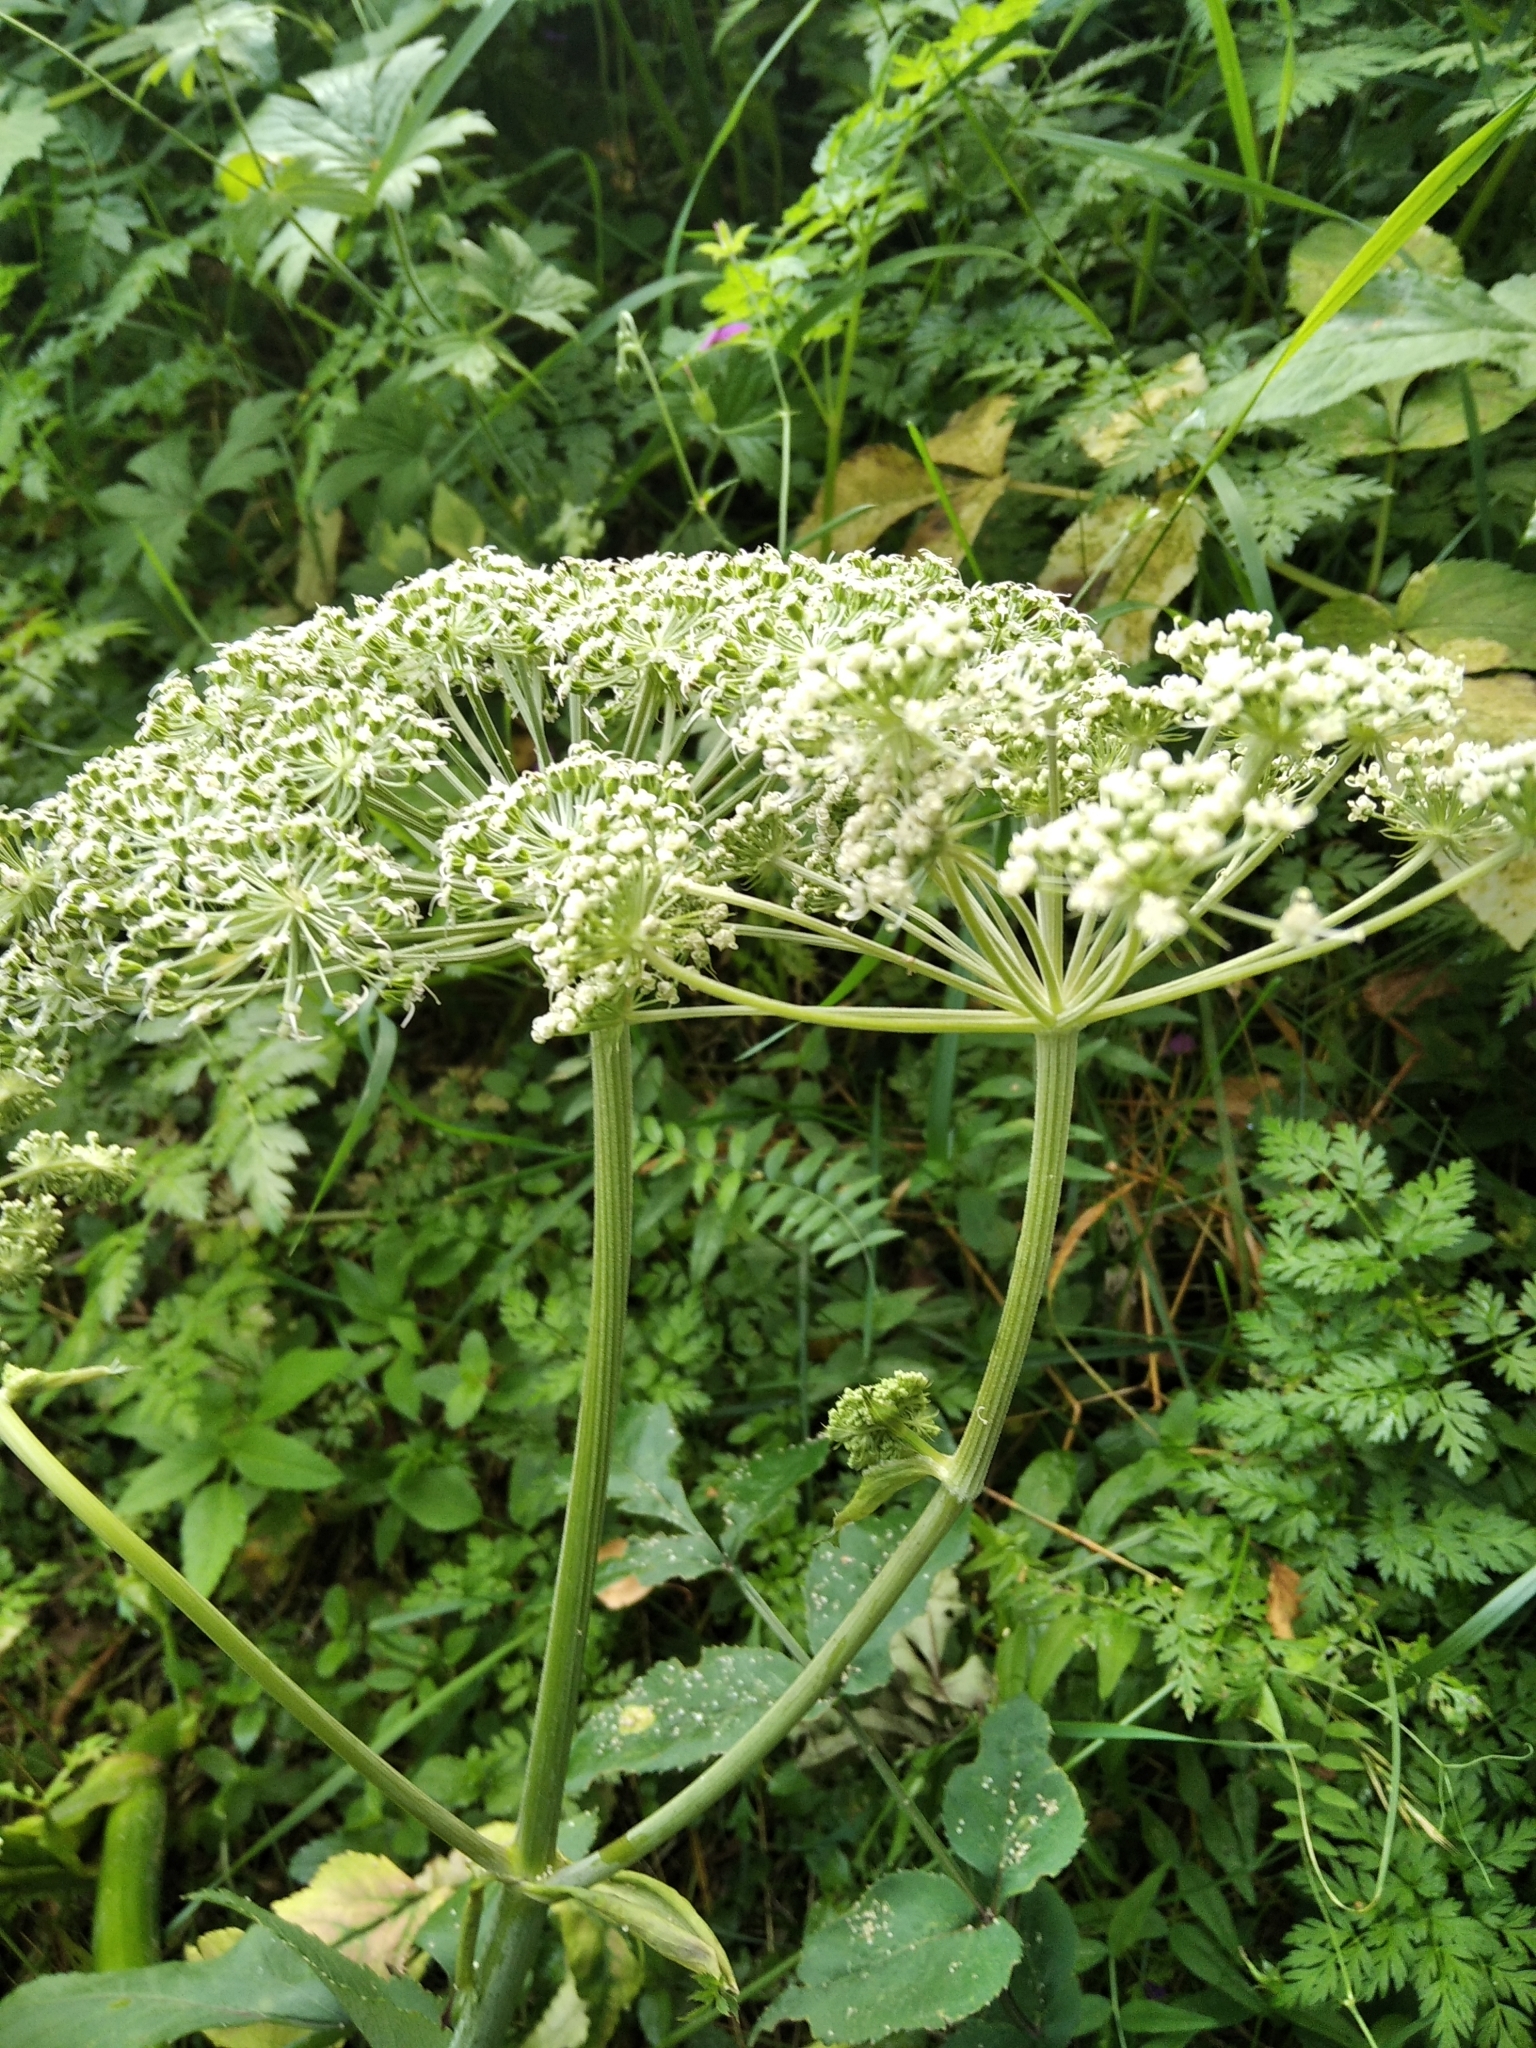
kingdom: Plantae
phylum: Tracheophyta
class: Magnoliopsida
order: Apiales
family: Apiaceae
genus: Angelica
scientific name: Angelica sylvestris
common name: Wild angelica
